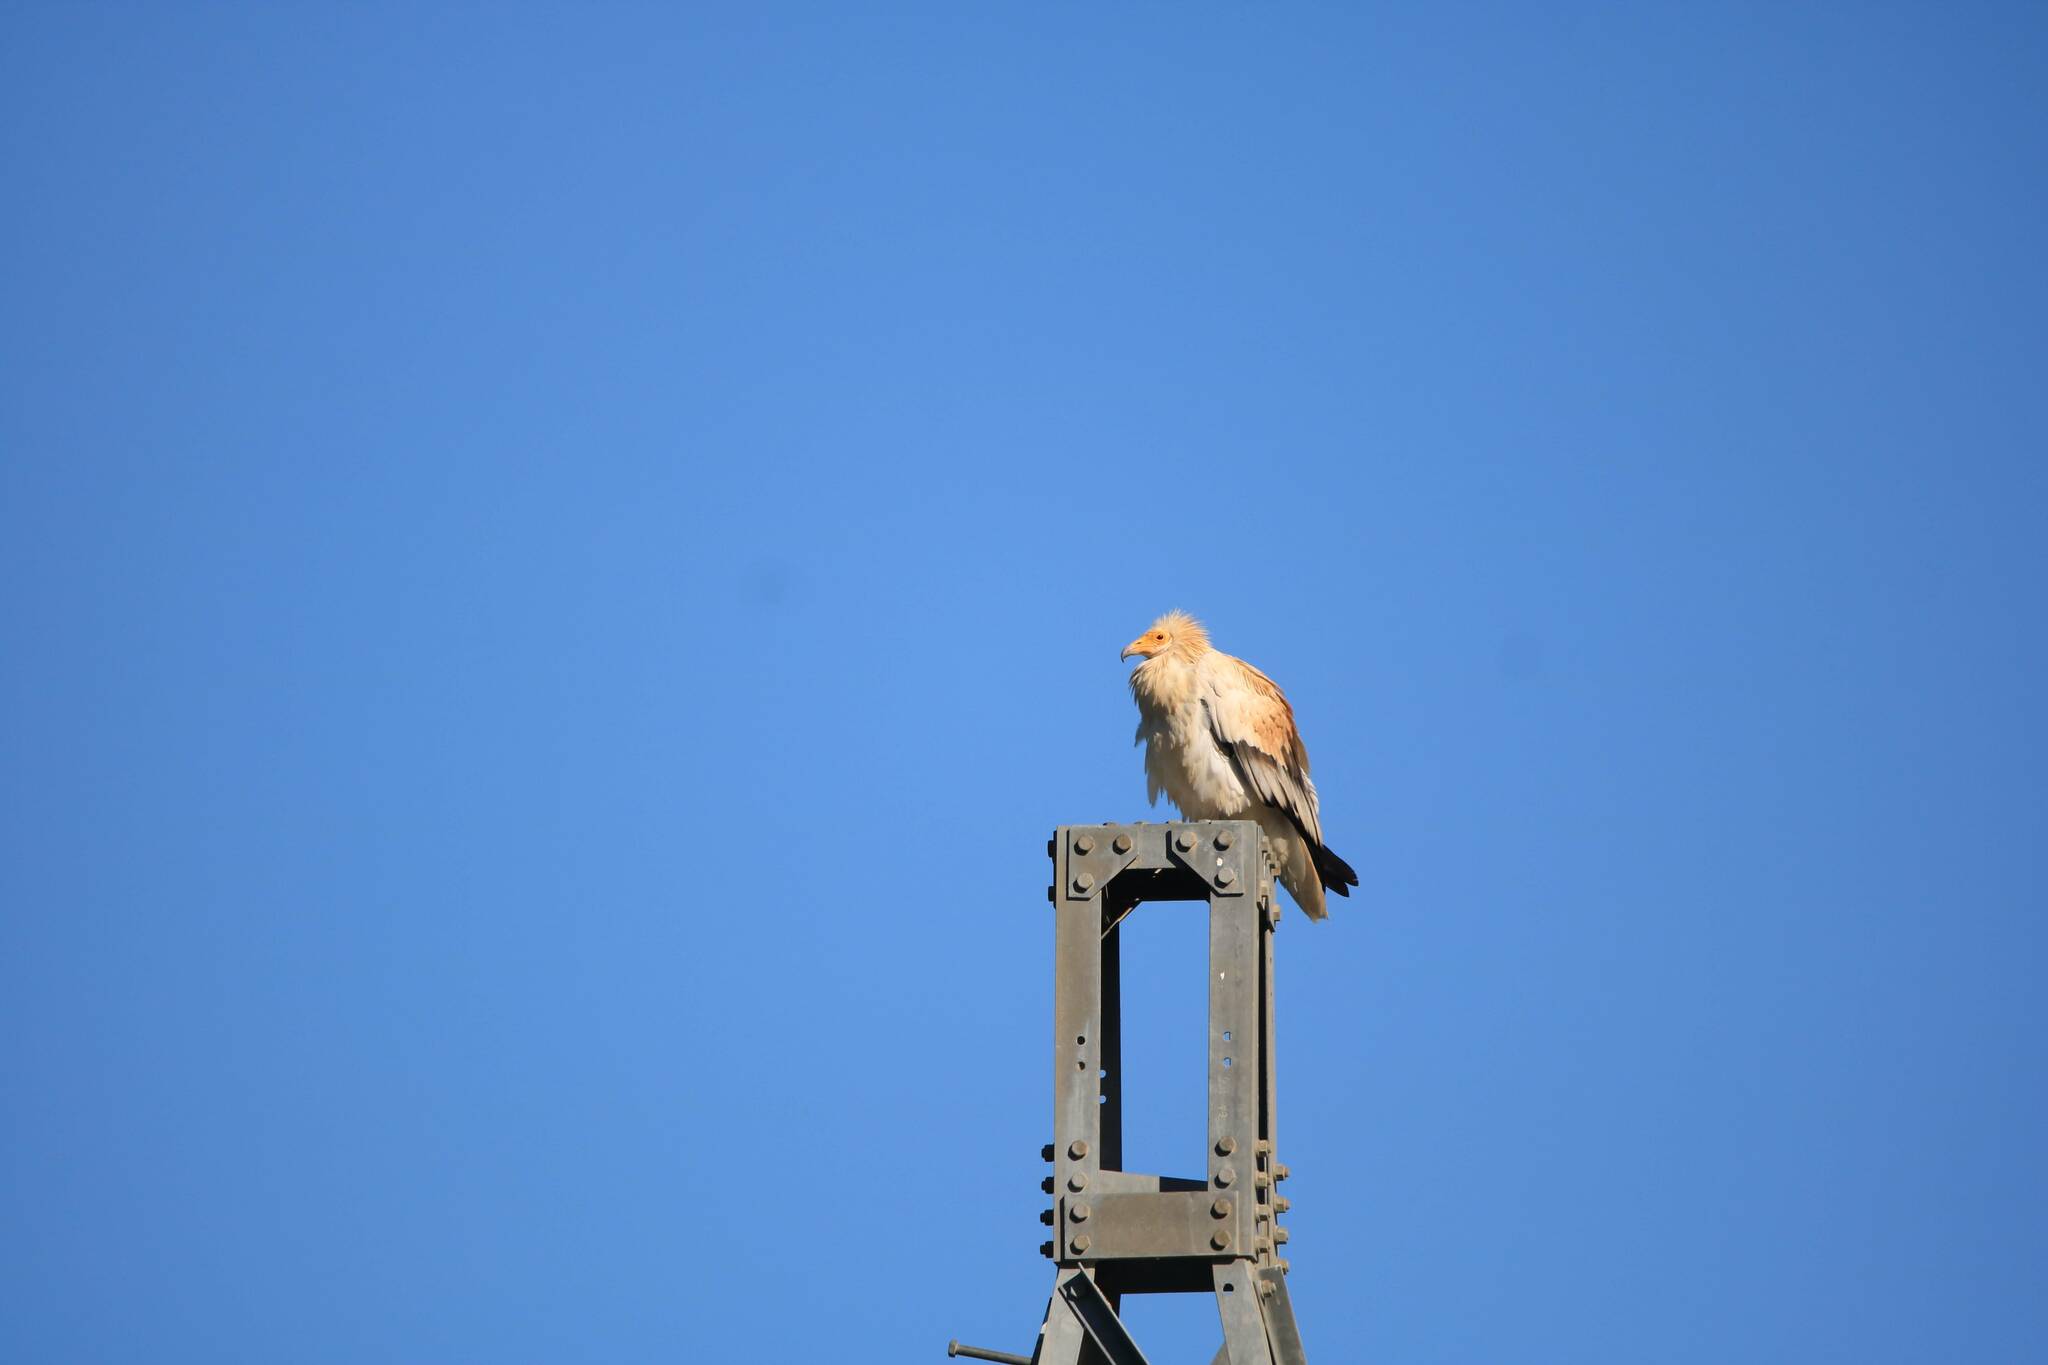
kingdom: Animalia
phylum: Chordata
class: Aves
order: Accipitriformes
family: Accipitridae
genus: Neophron
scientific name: Neophron percnopterus
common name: Egyptian vulture
